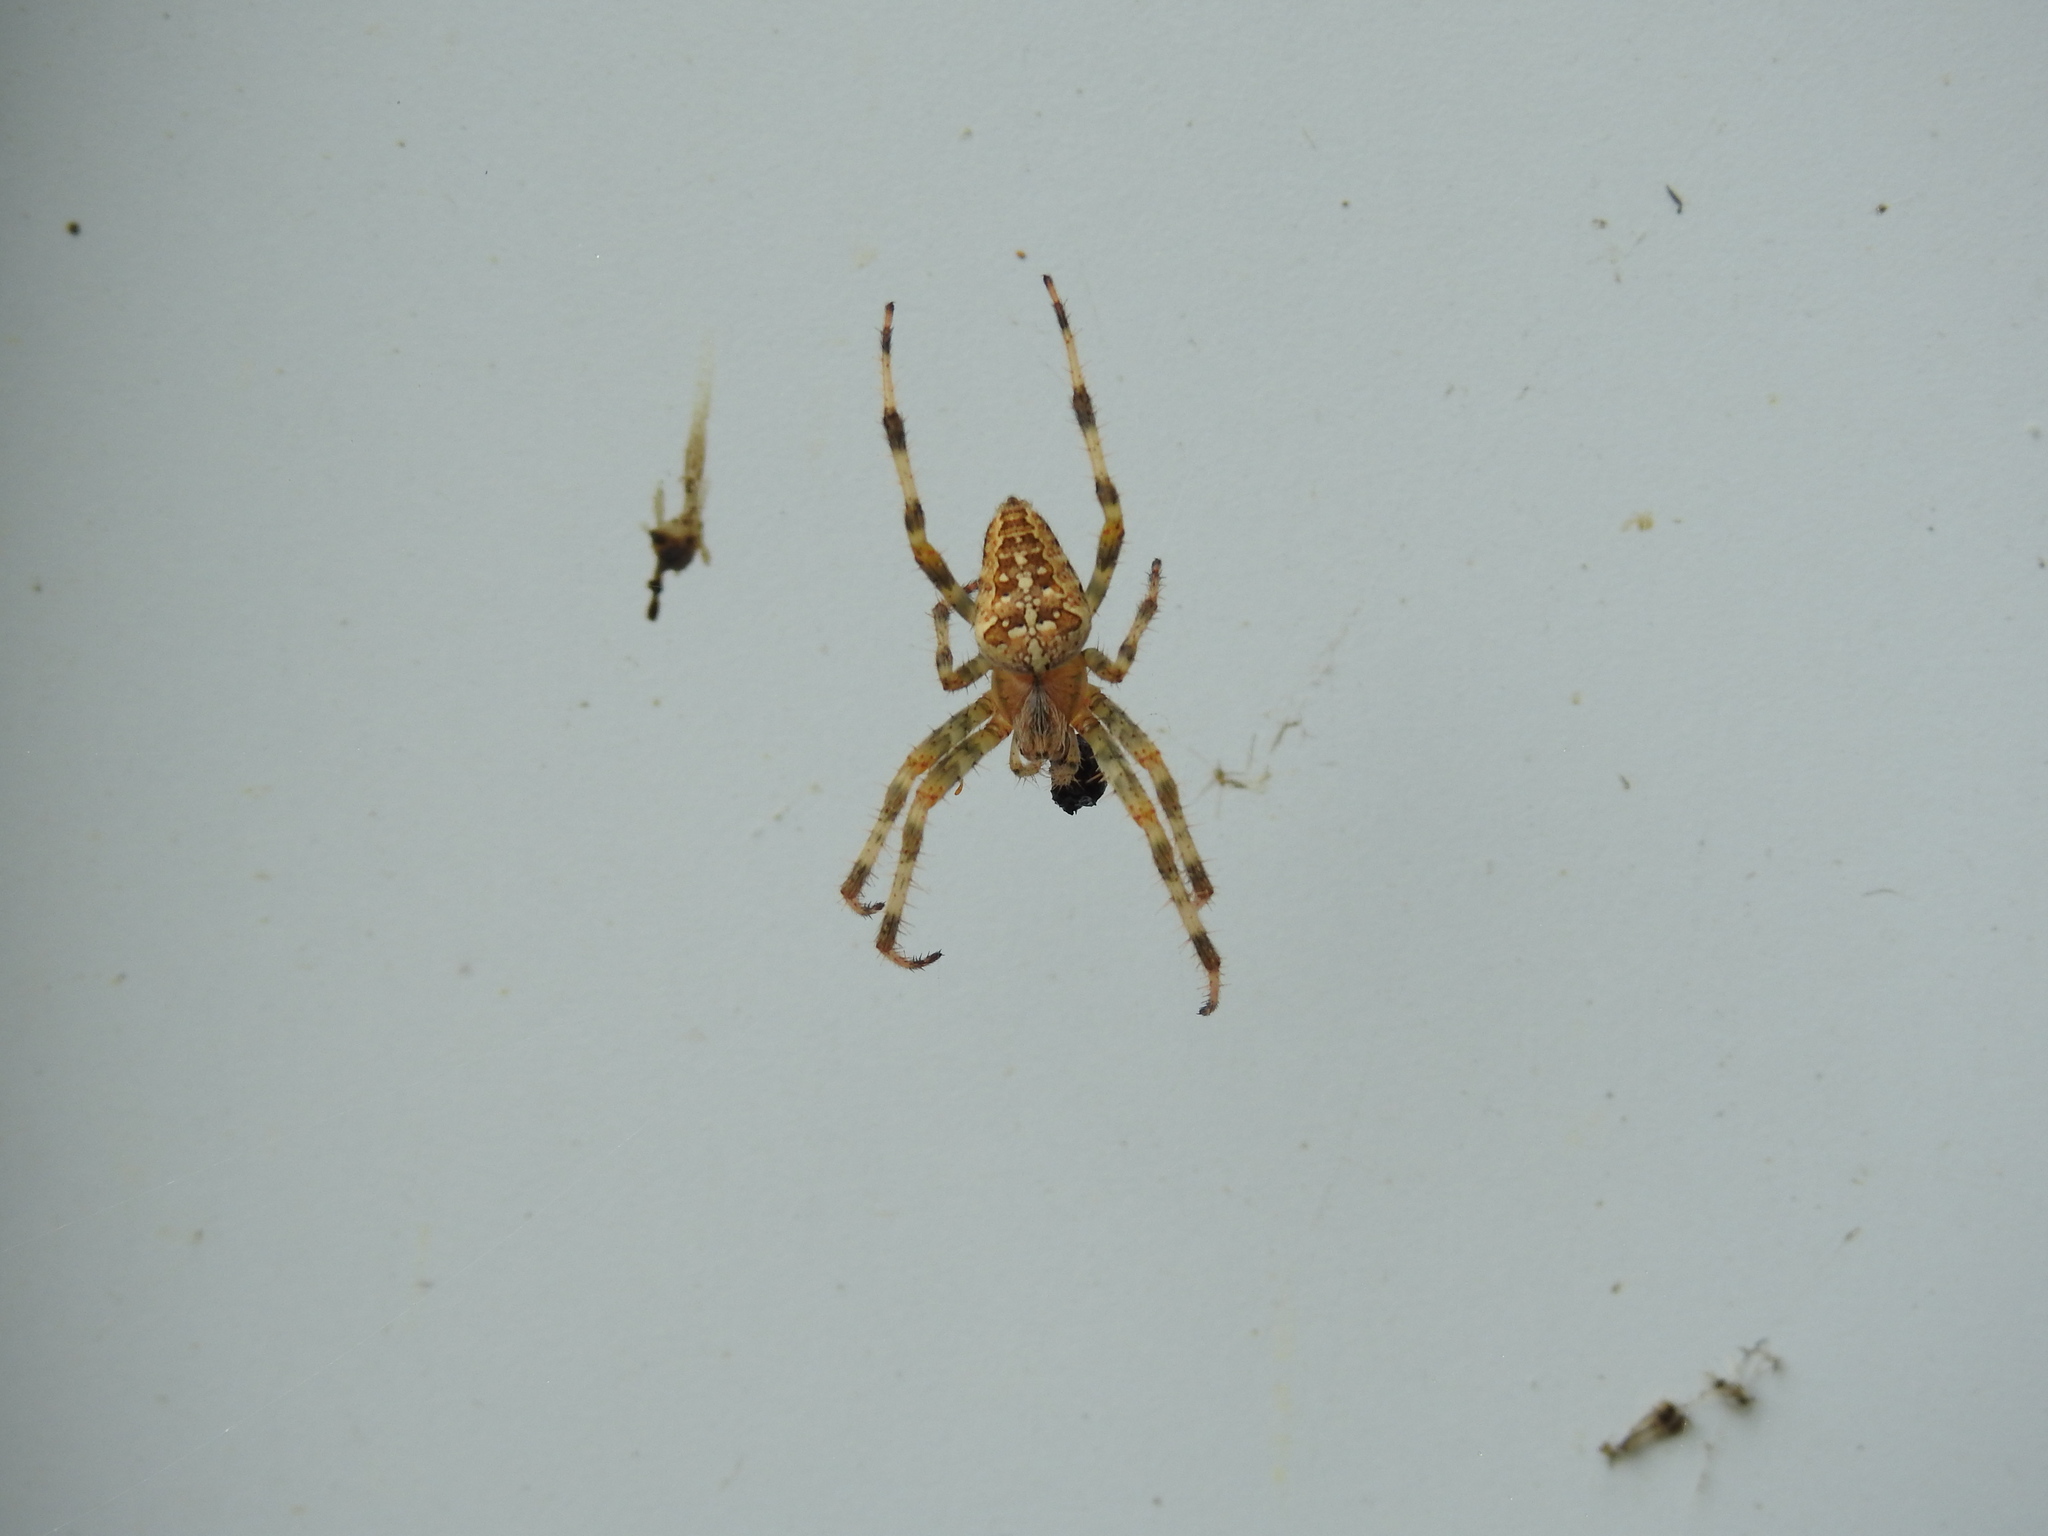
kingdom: Animalia
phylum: Arthropoda
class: Arachnida
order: Araneae
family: Araneidae
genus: Araneus
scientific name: Araneus diadematus
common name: Cross orbweaver
